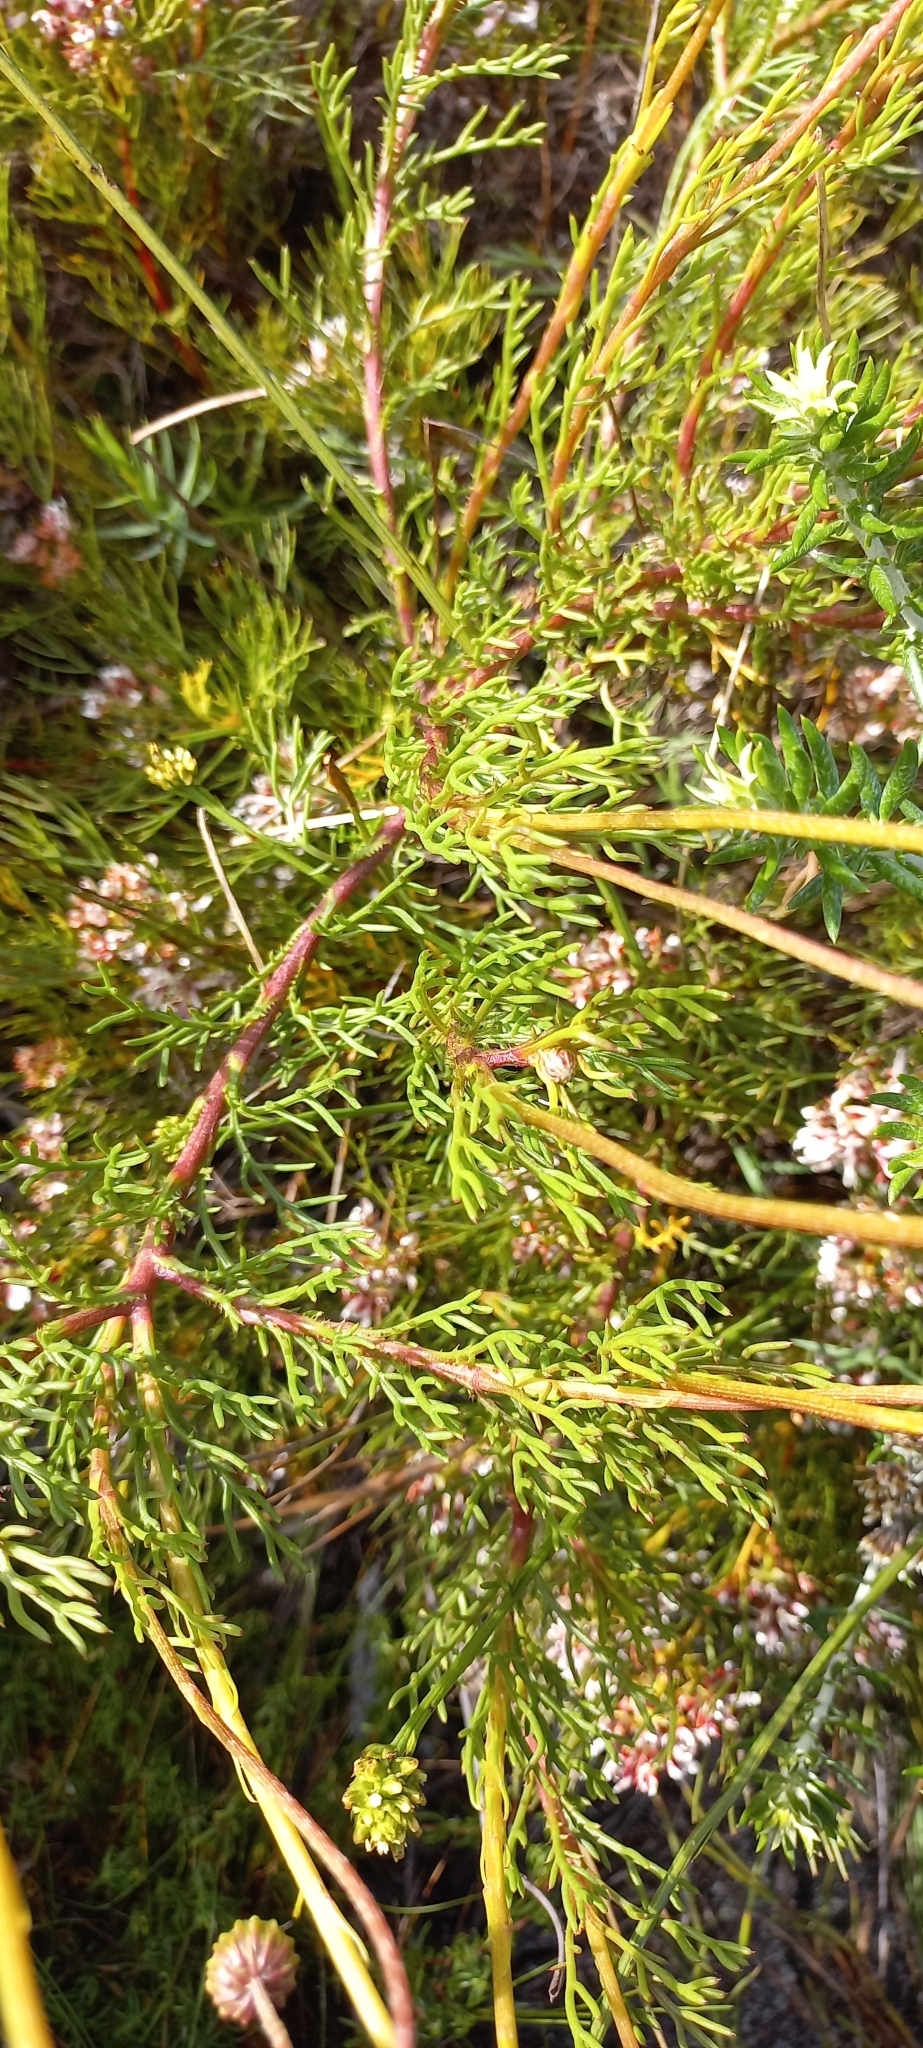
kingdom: Plantae
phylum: Tracheophyta
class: Magnoliopsida
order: Asterales
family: Asteraceae
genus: Ursinia
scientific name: Ursinia paleacea
